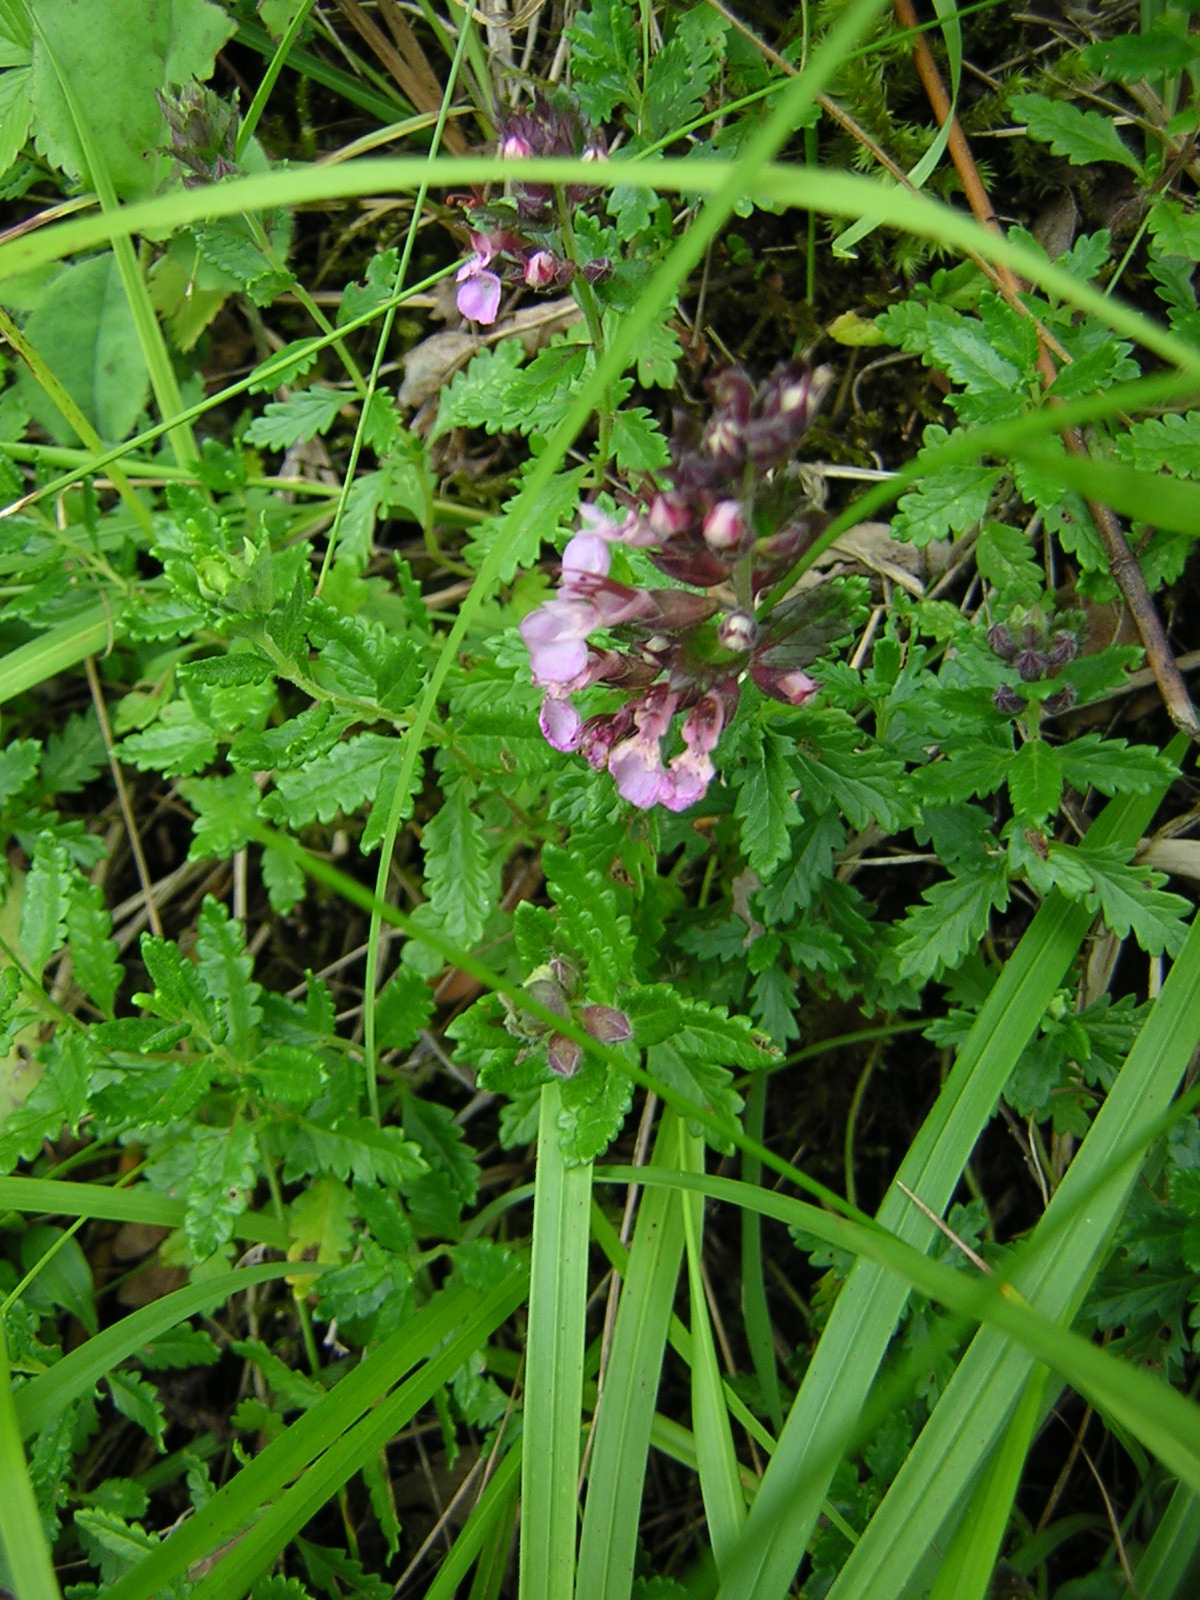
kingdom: Plantae
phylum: Tracheophyta
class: Magnoliopsida
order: Lamiales
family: Lamiaceae
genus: Teucrium
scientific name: Teucrium chamaedrys
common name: Wall germander
